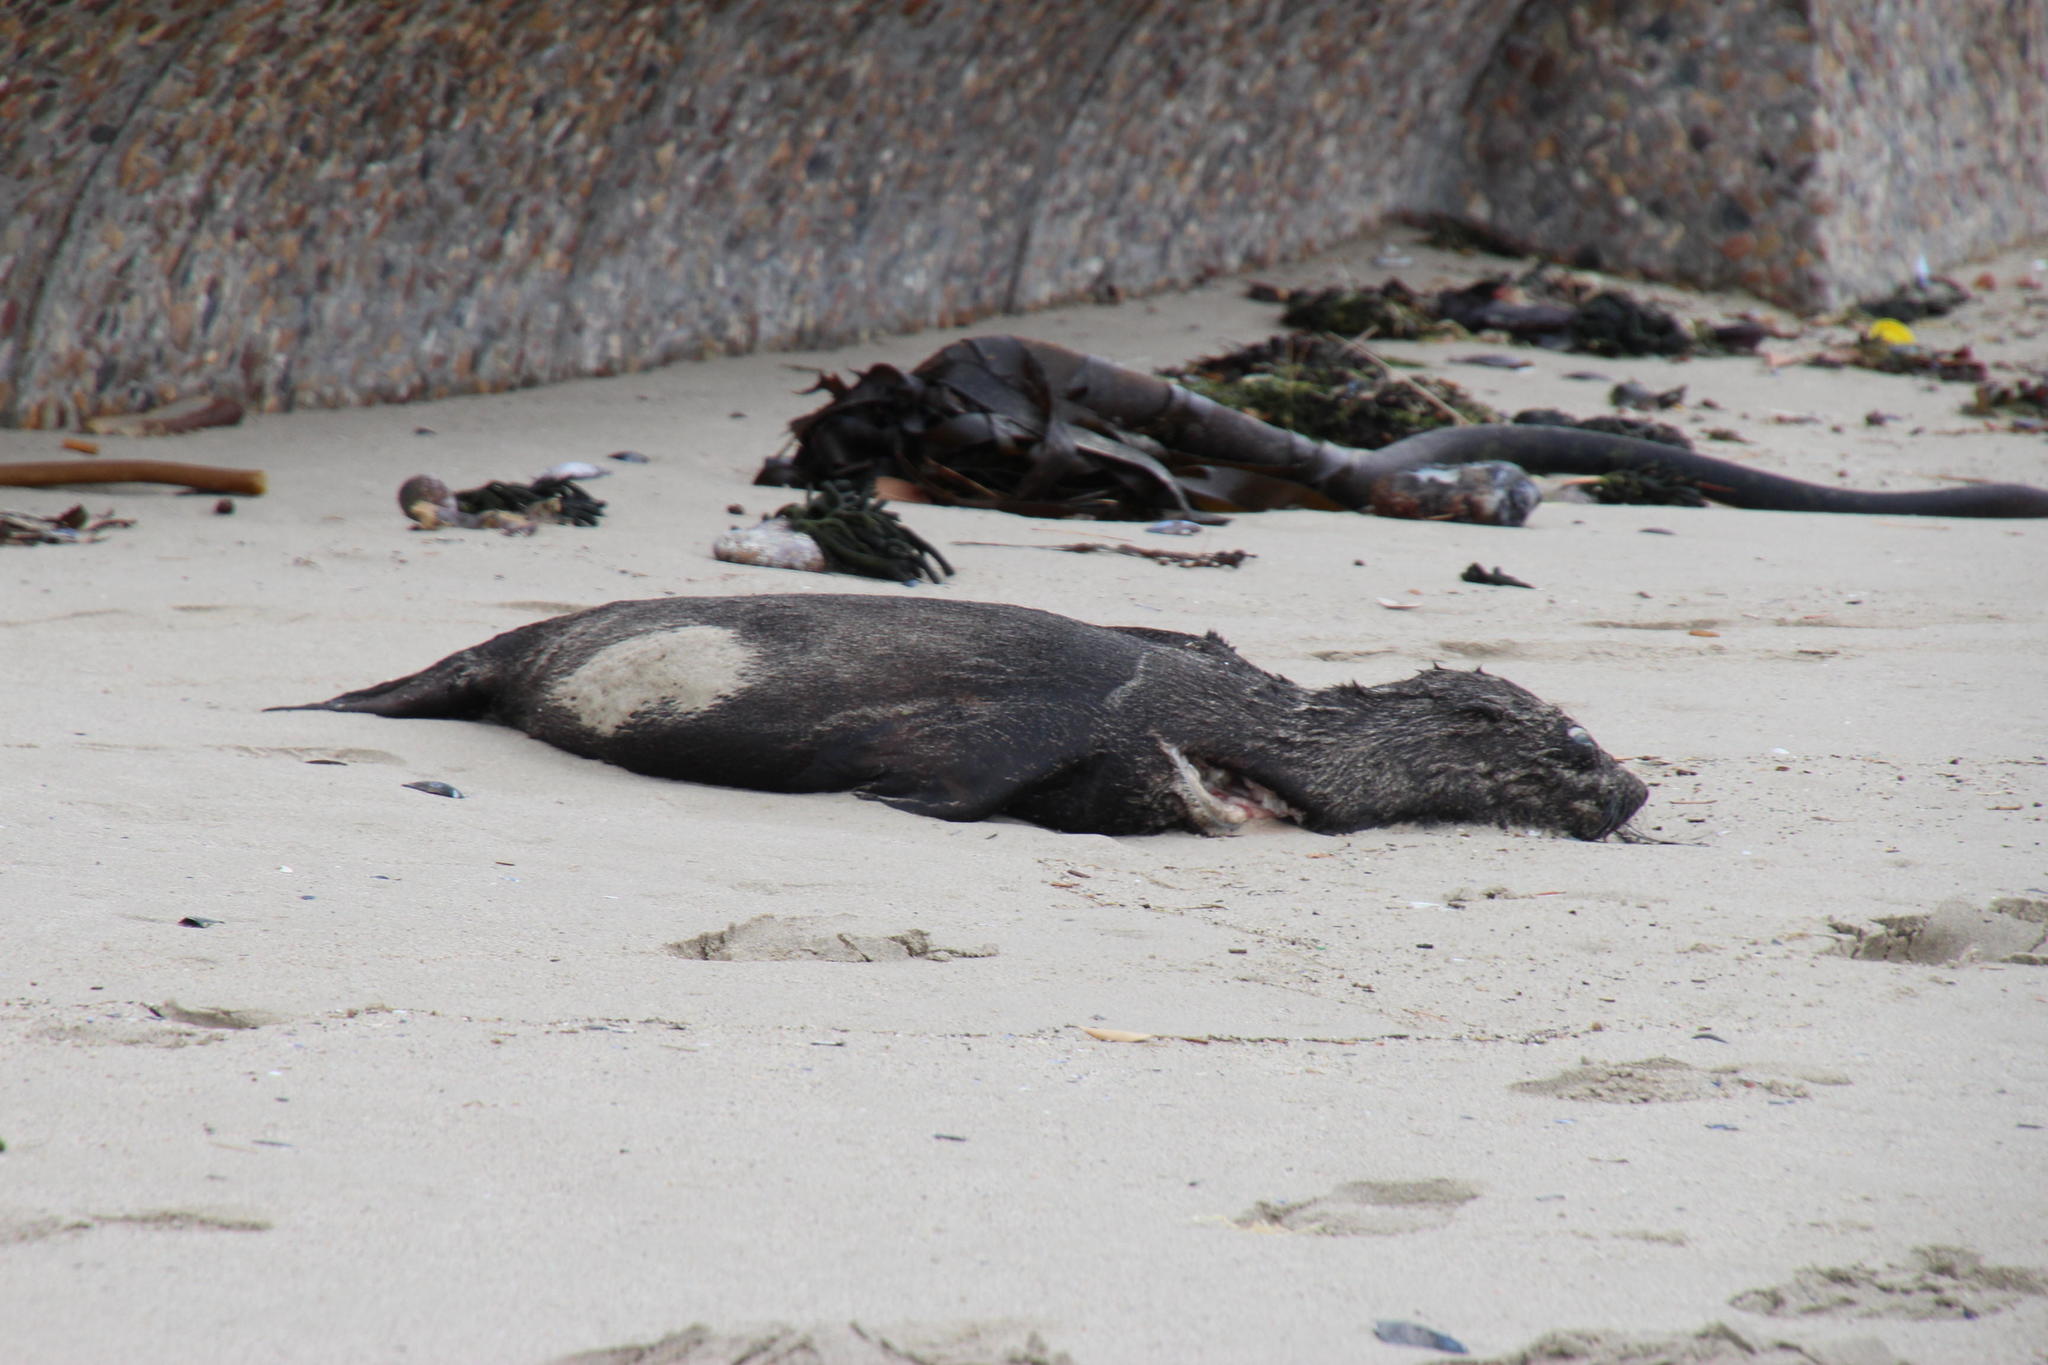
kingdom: Animalia
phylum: Chordata
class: Mammalia
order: Carnivora
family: Otariidae
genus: Arctocephalus
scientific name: Arctocephalus pusillus
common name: Brown fur seal
